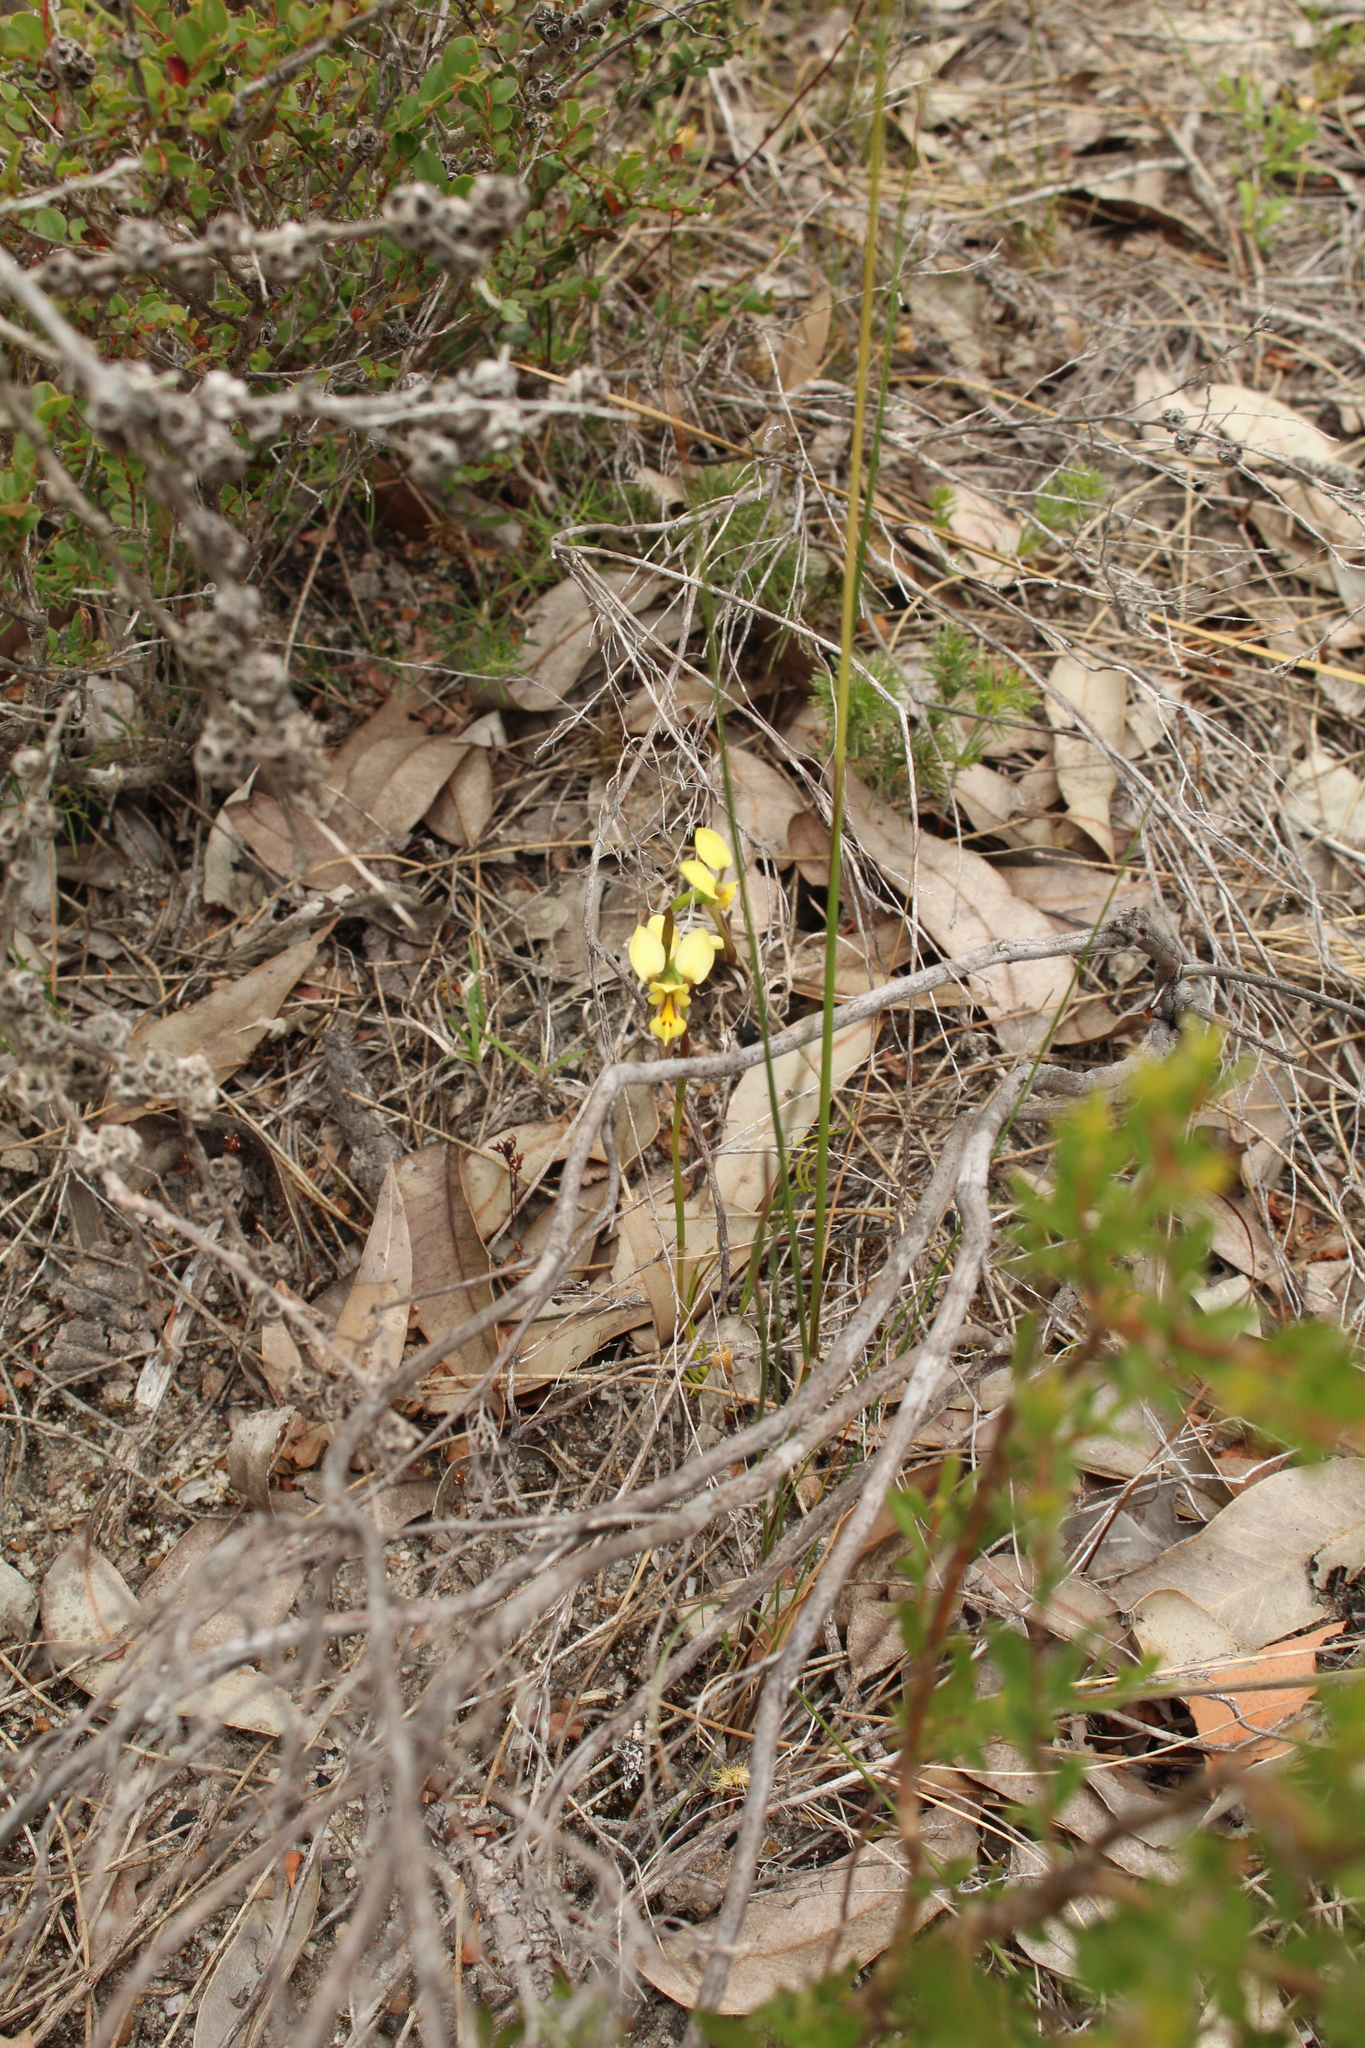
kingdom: Plantae
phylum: Tracheophyta
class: Liliopsida
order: Asparagales
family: Orchidaceae
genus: Diuris
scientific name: Diuris setacea
